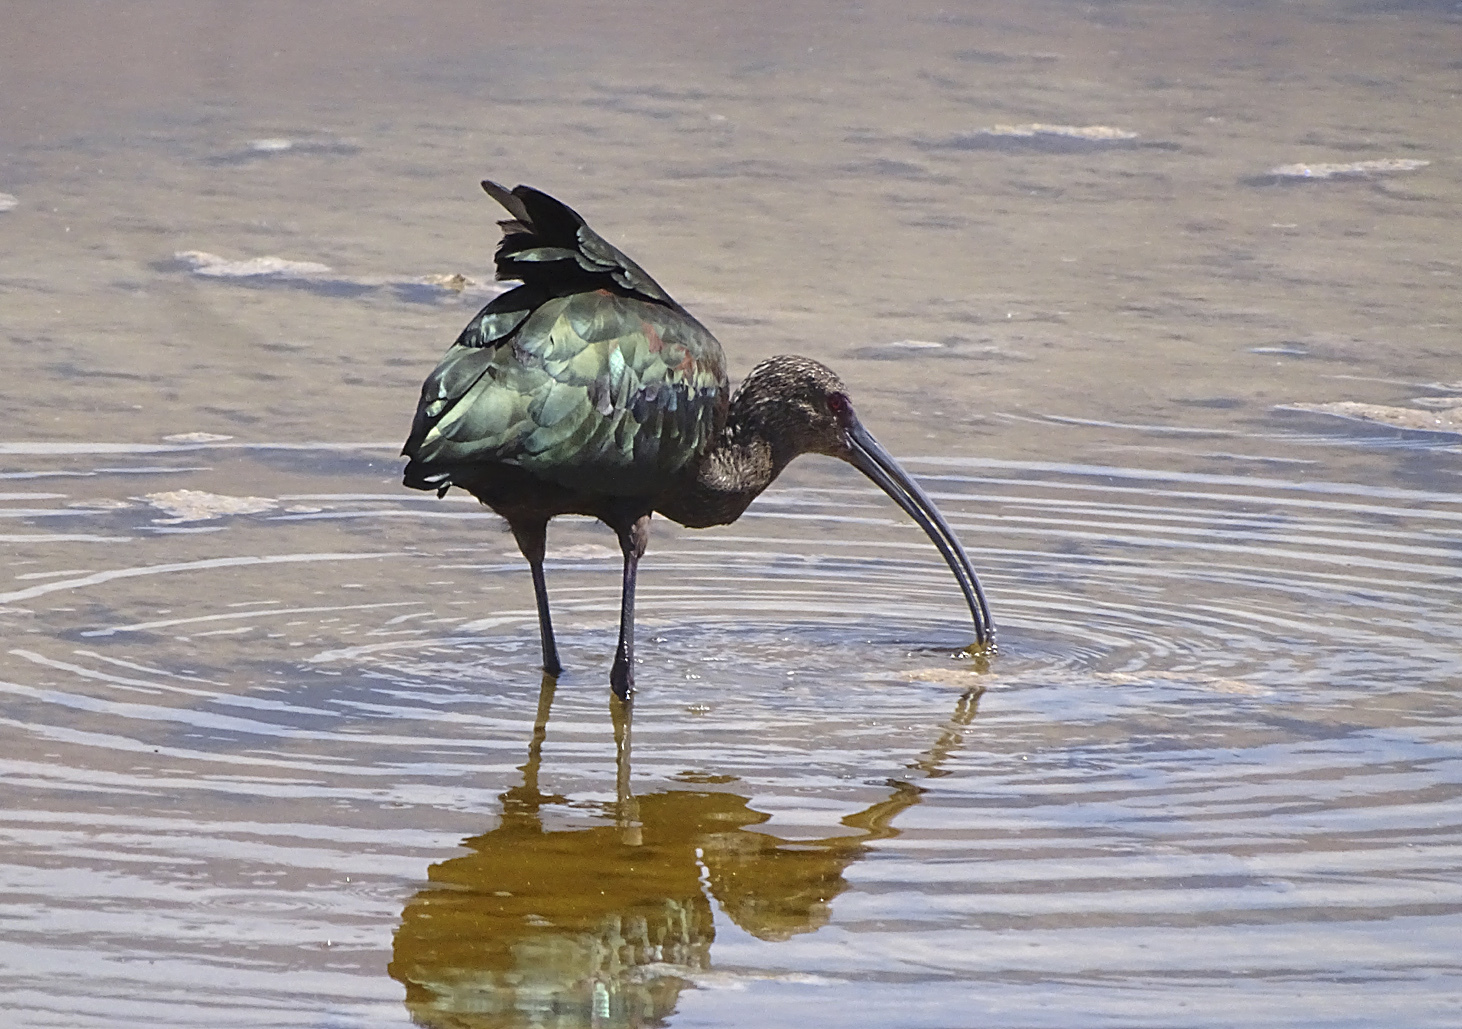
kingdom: Animalia
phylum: Chordata
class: Aves
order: Pelecaniformes
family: Threskiornithidae
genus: Plegadis
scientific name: Plegadis chihi
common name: White-faced ibis
